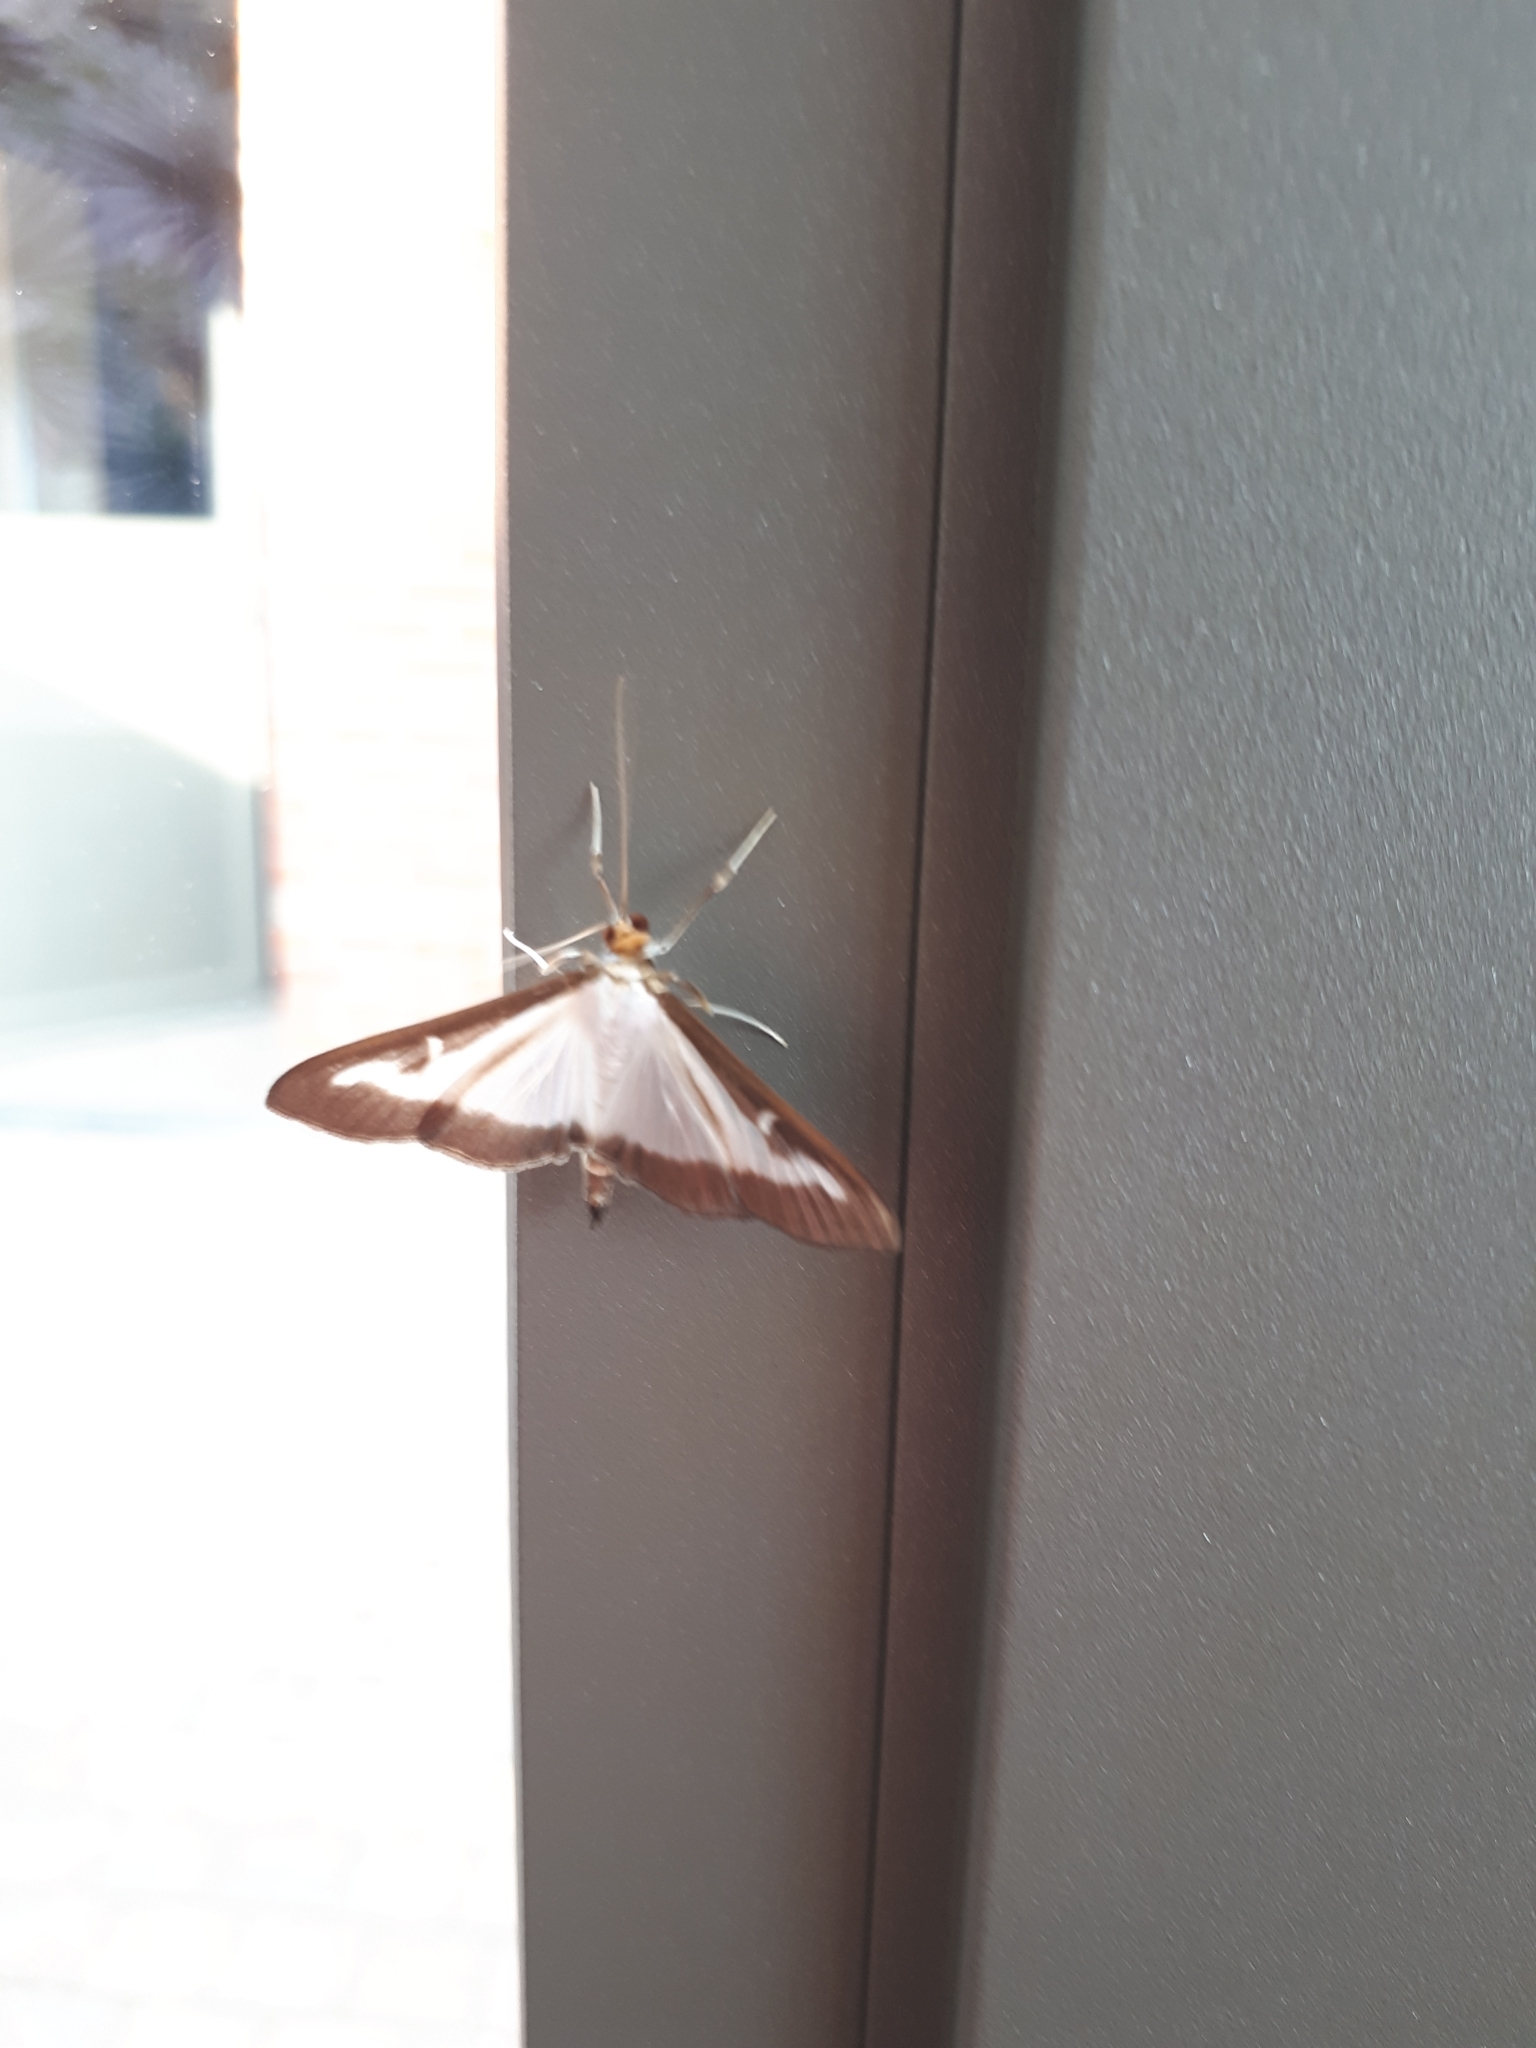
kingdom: Animalia
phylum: Arthropoda
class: Insecta
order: Lepidoptera
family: Crambidae
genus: Cydalima
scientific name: Cydalima perspectalis
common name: Box tree moth
